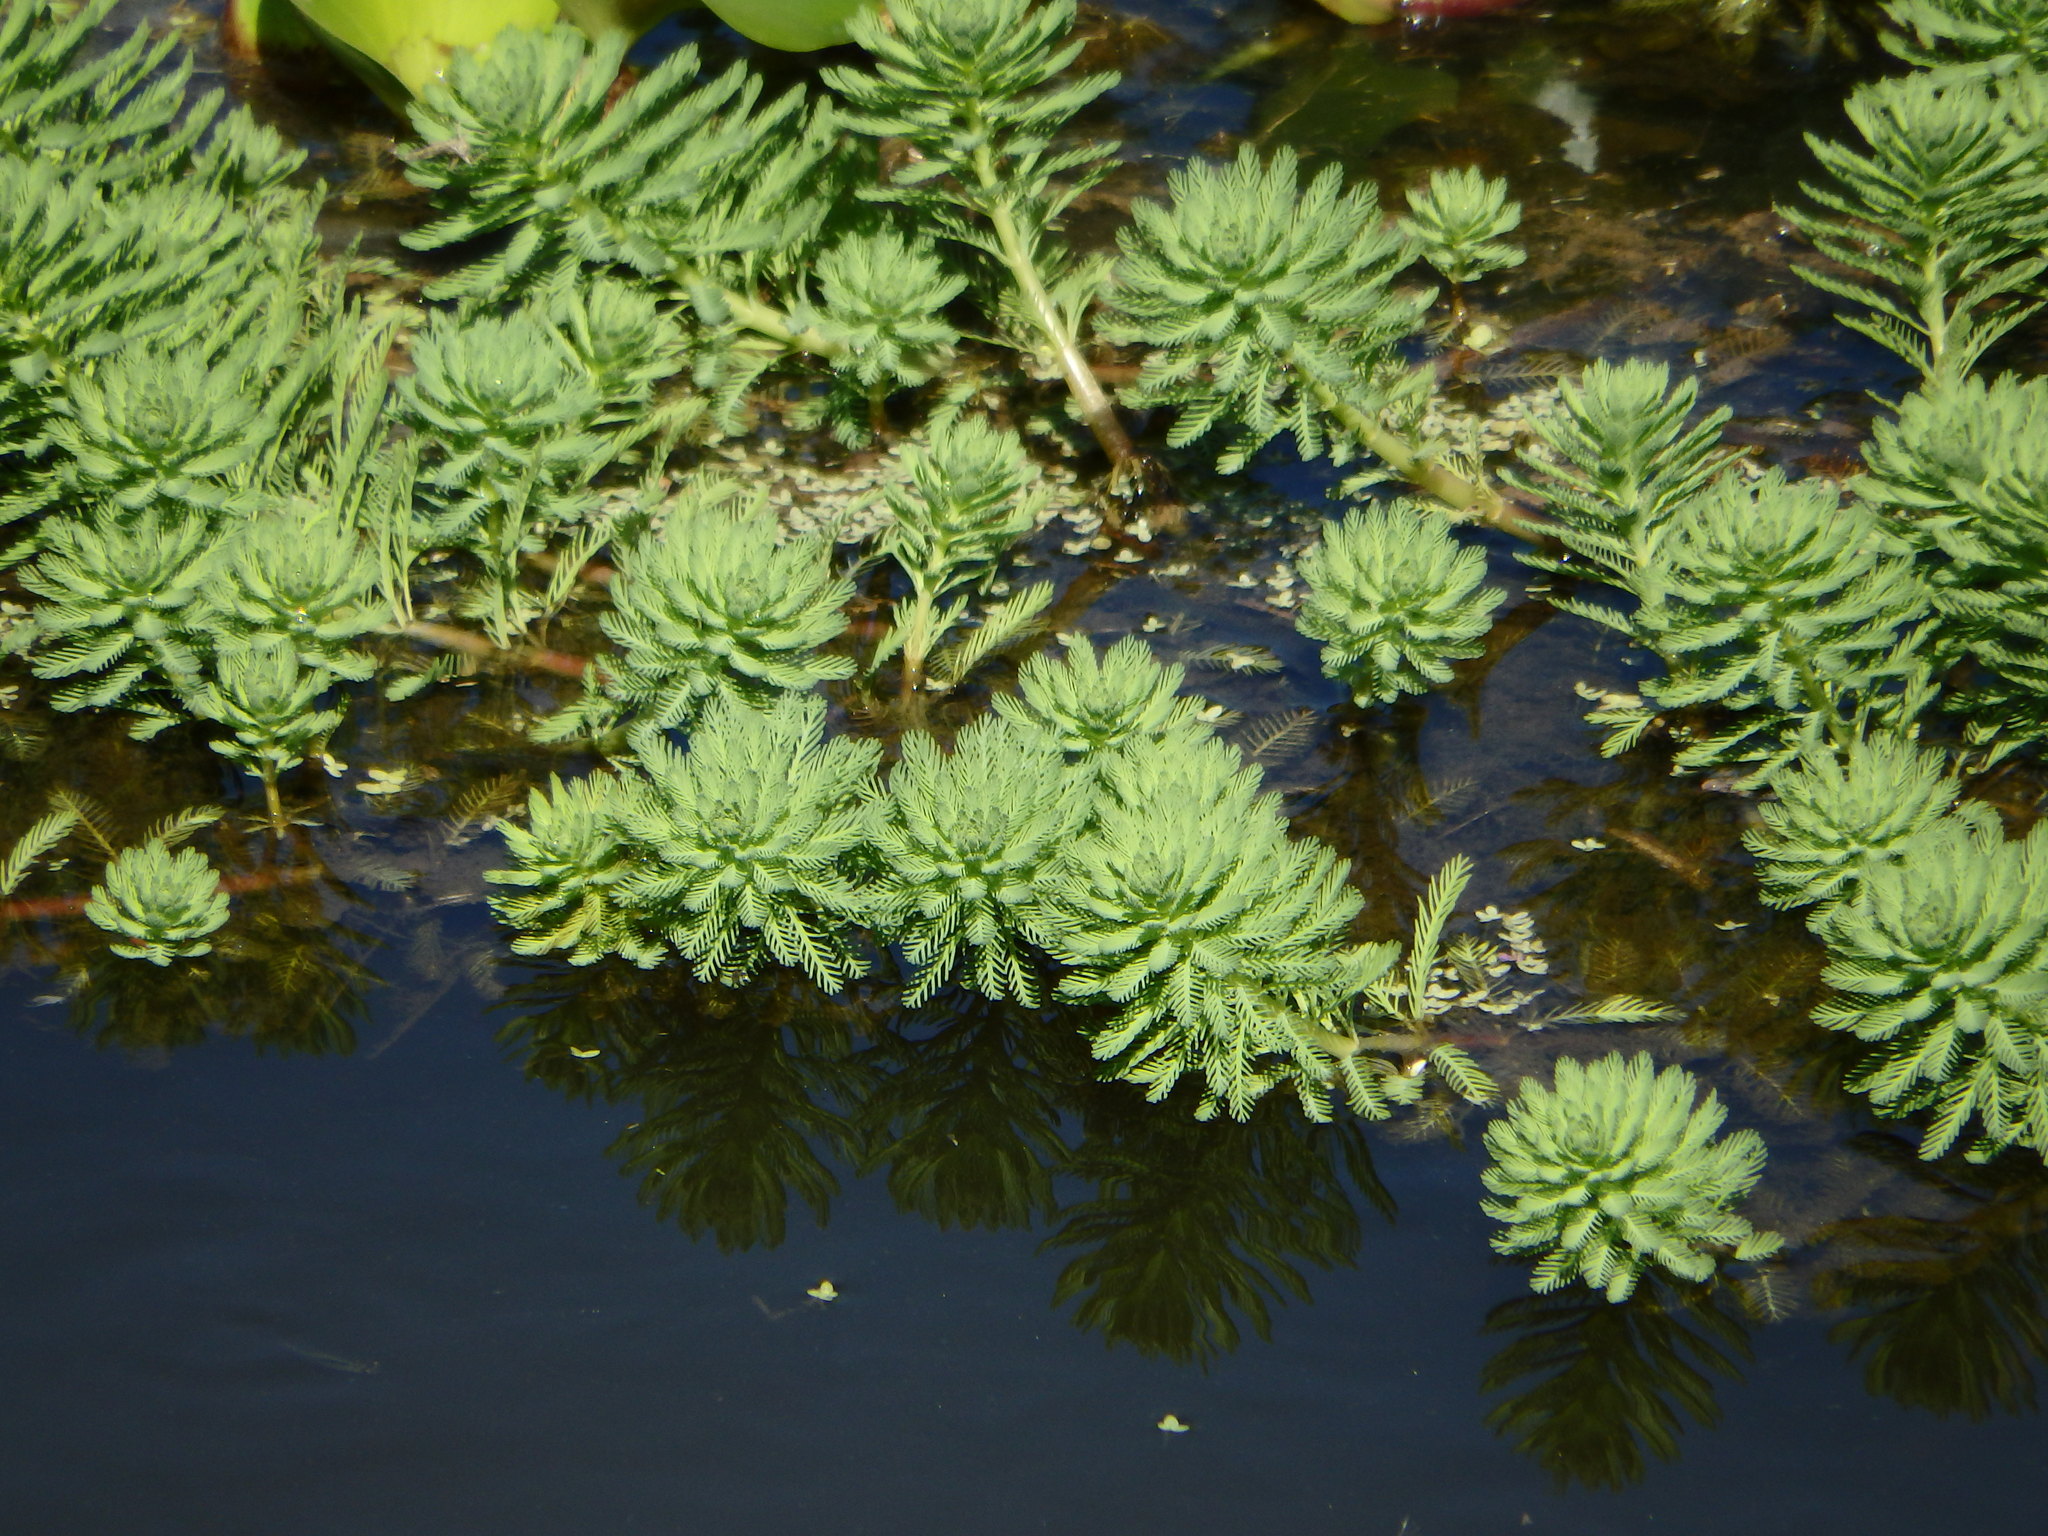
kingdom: Plantae
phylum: Tracheophyta
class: Magnoliopsida
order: Saxifragales
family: Haloragaceae
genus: Myriophyllum
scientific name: Myriophyllum aquaticum
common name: Parrot's feather
